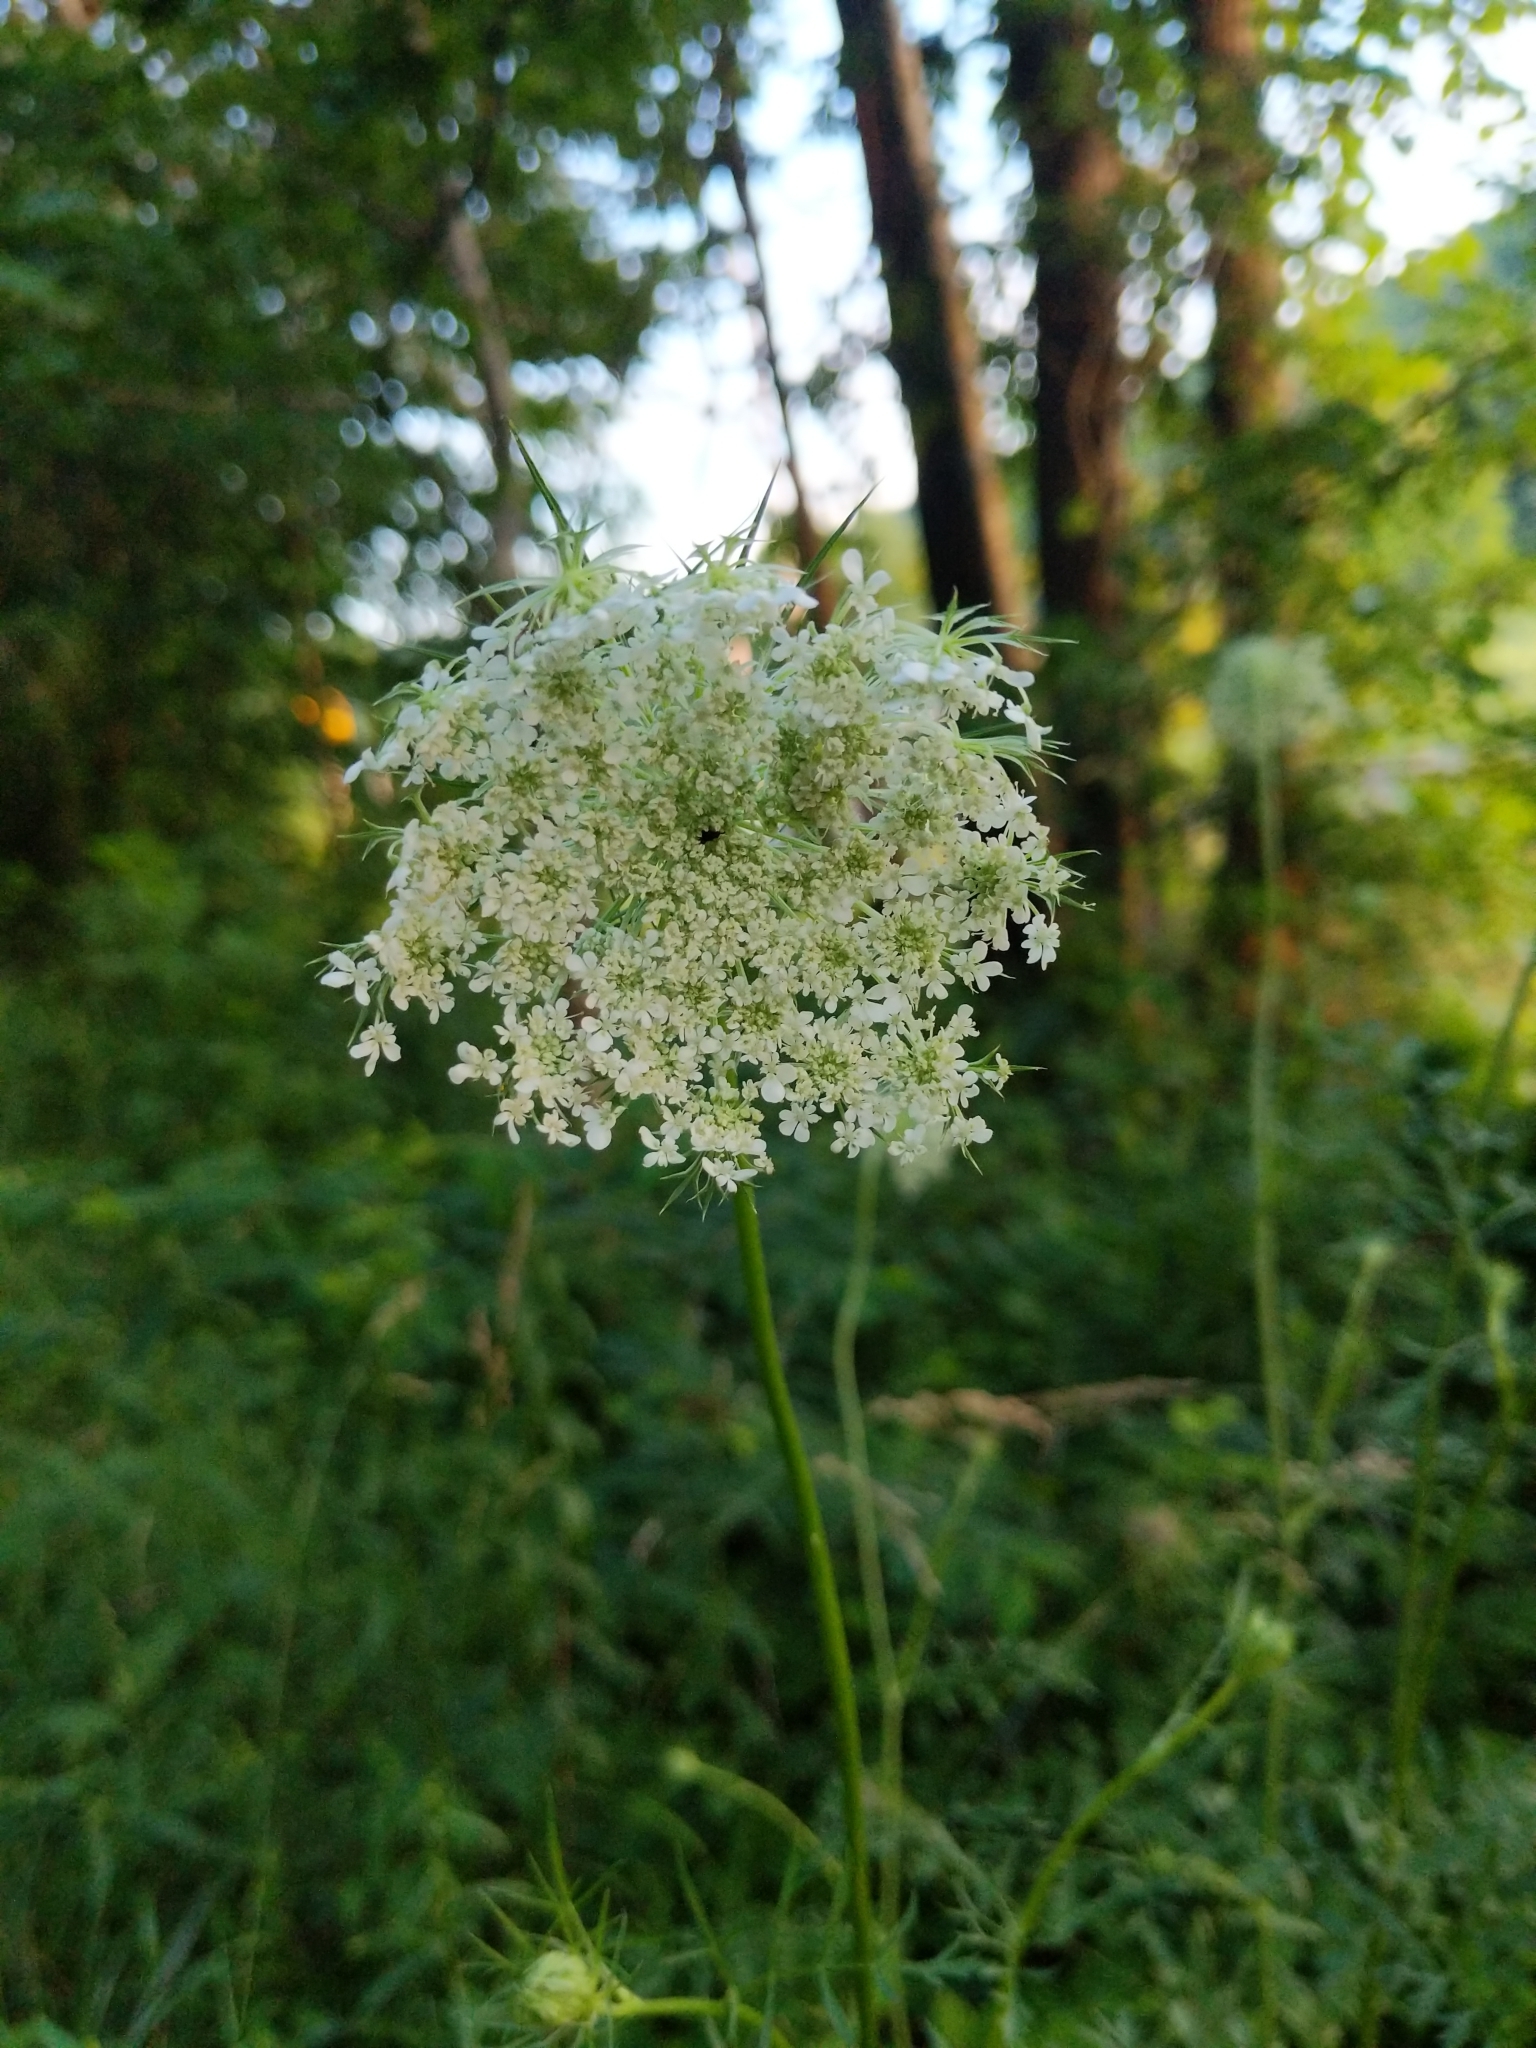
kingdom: Plantae
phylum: Tracheophyta
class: Magnoliopsida
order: Apiales
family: Apiaceae
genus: Daucus
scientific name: Daucus carota
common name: Wild carrot
